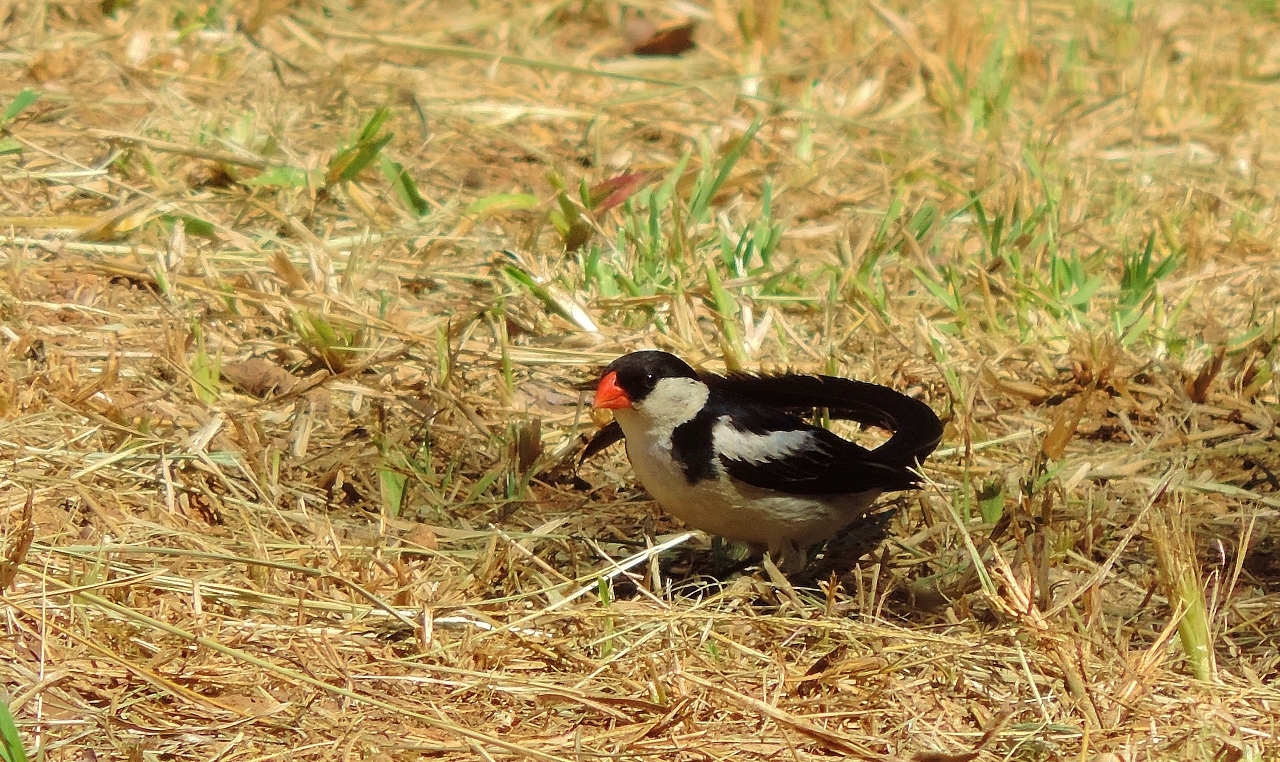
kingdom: Animalia
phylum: Chordata
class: Aves
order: Passeriformes
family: Viduidae
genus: Vidua
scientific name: Vidua macroura
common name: Pin-tailed whydah
